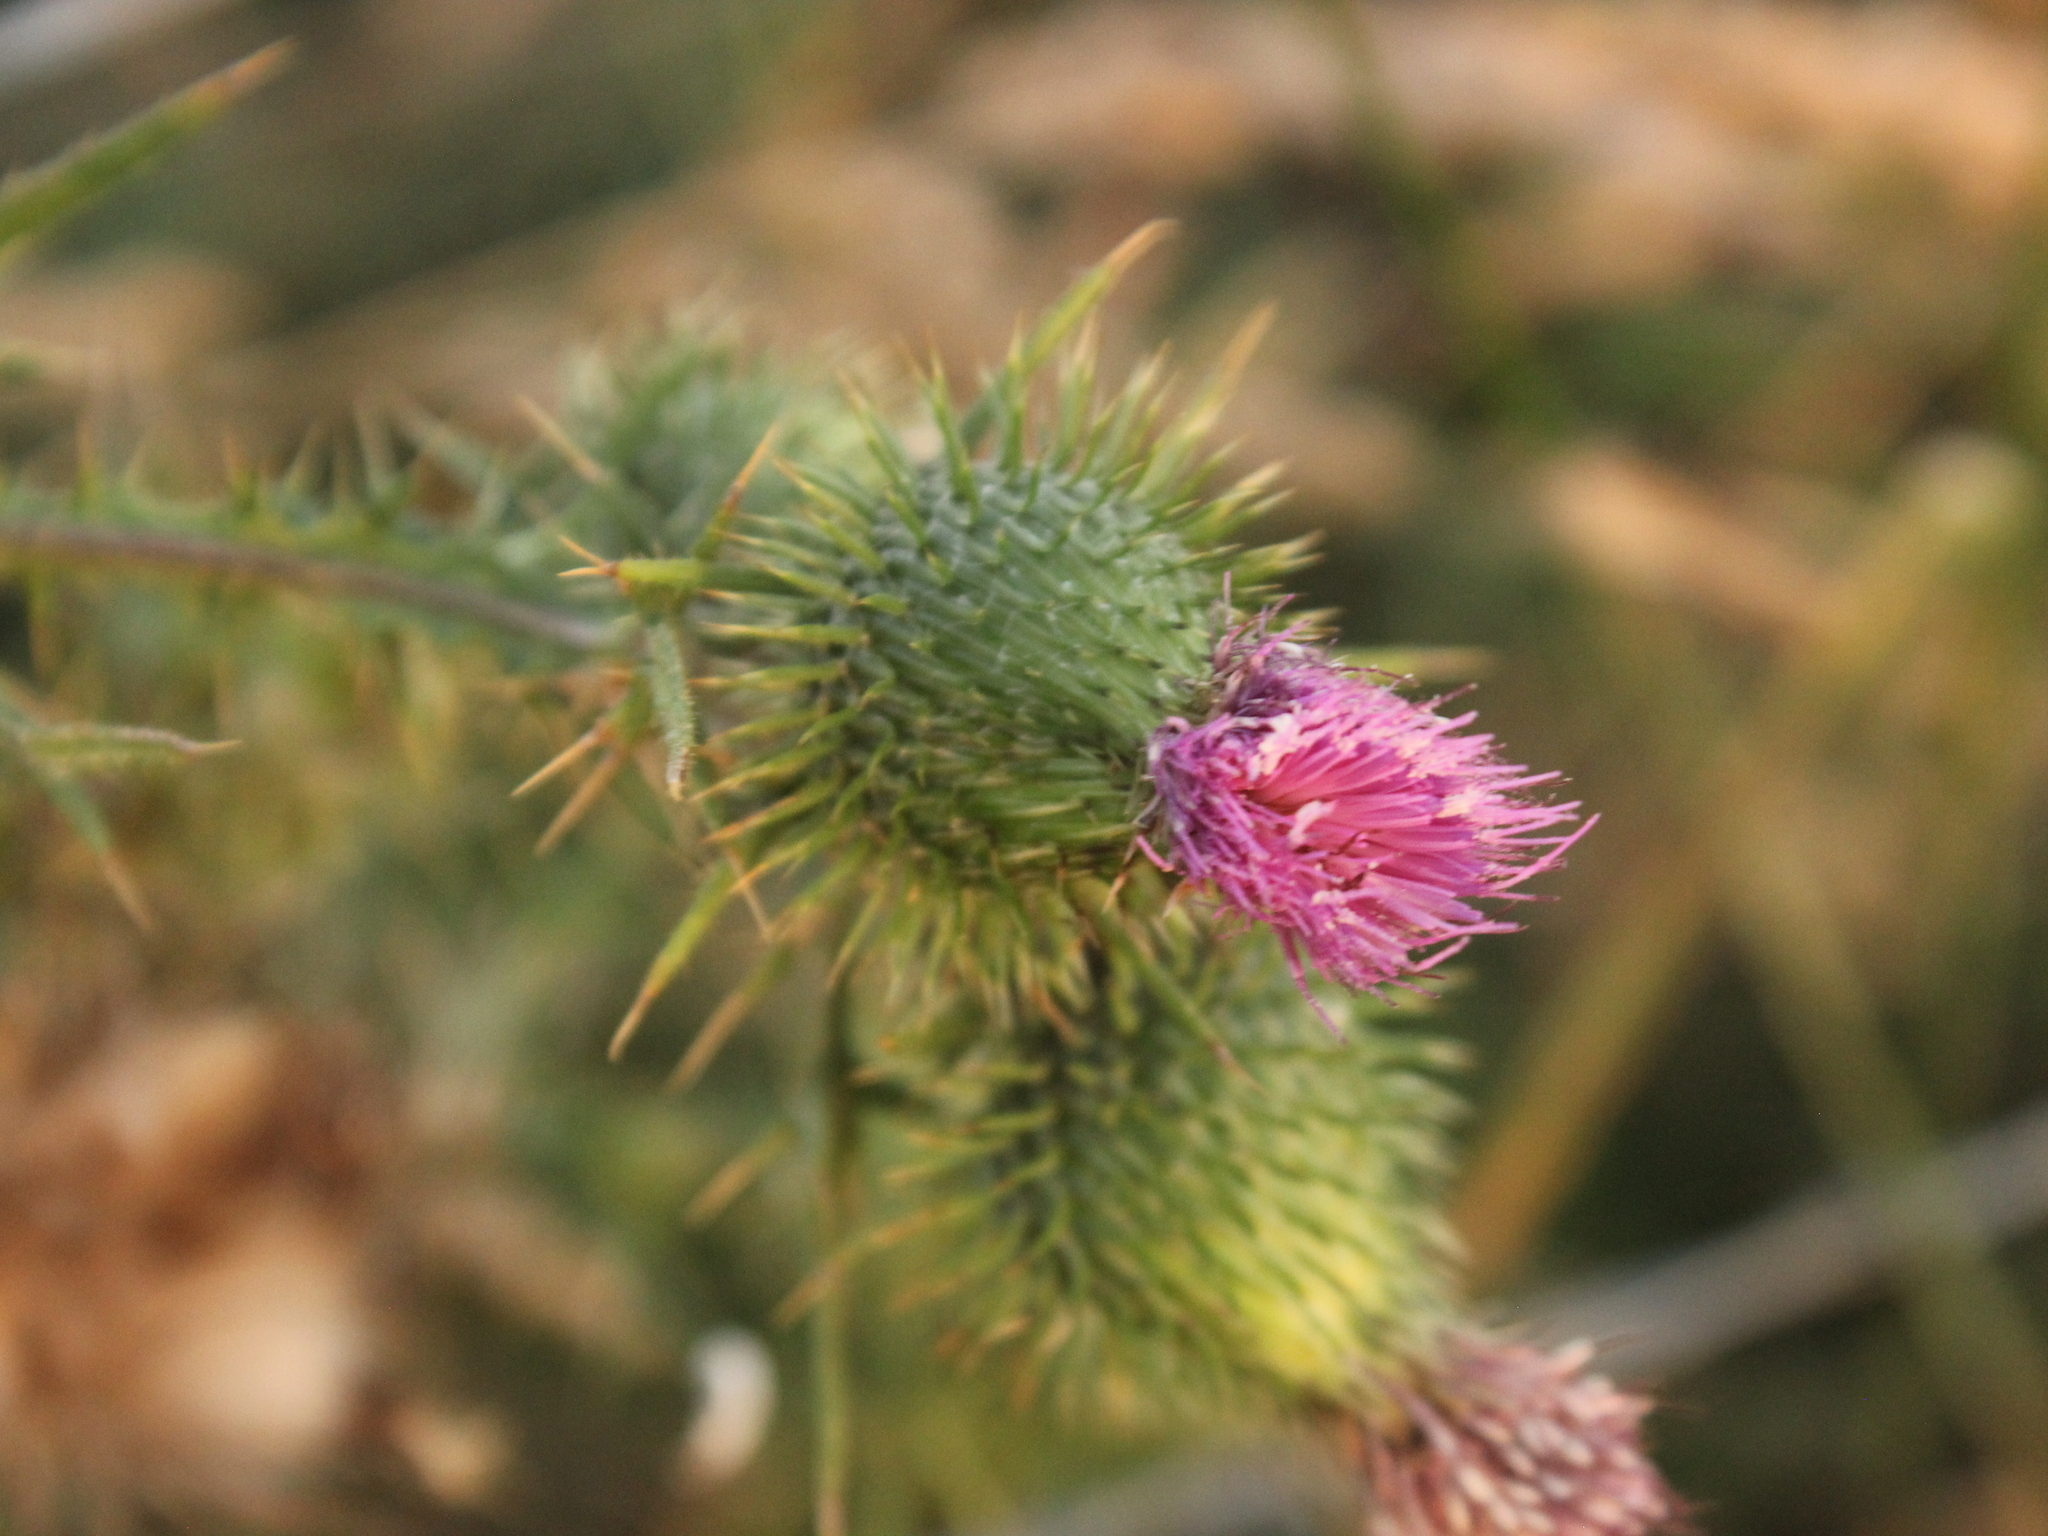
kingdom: Plantae
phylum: Tracheophyta
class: Magnoliopsida
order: Asterales
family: Asteraceae
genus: Cirsium
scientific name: Cirsium vulgare
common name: Bull thistle
